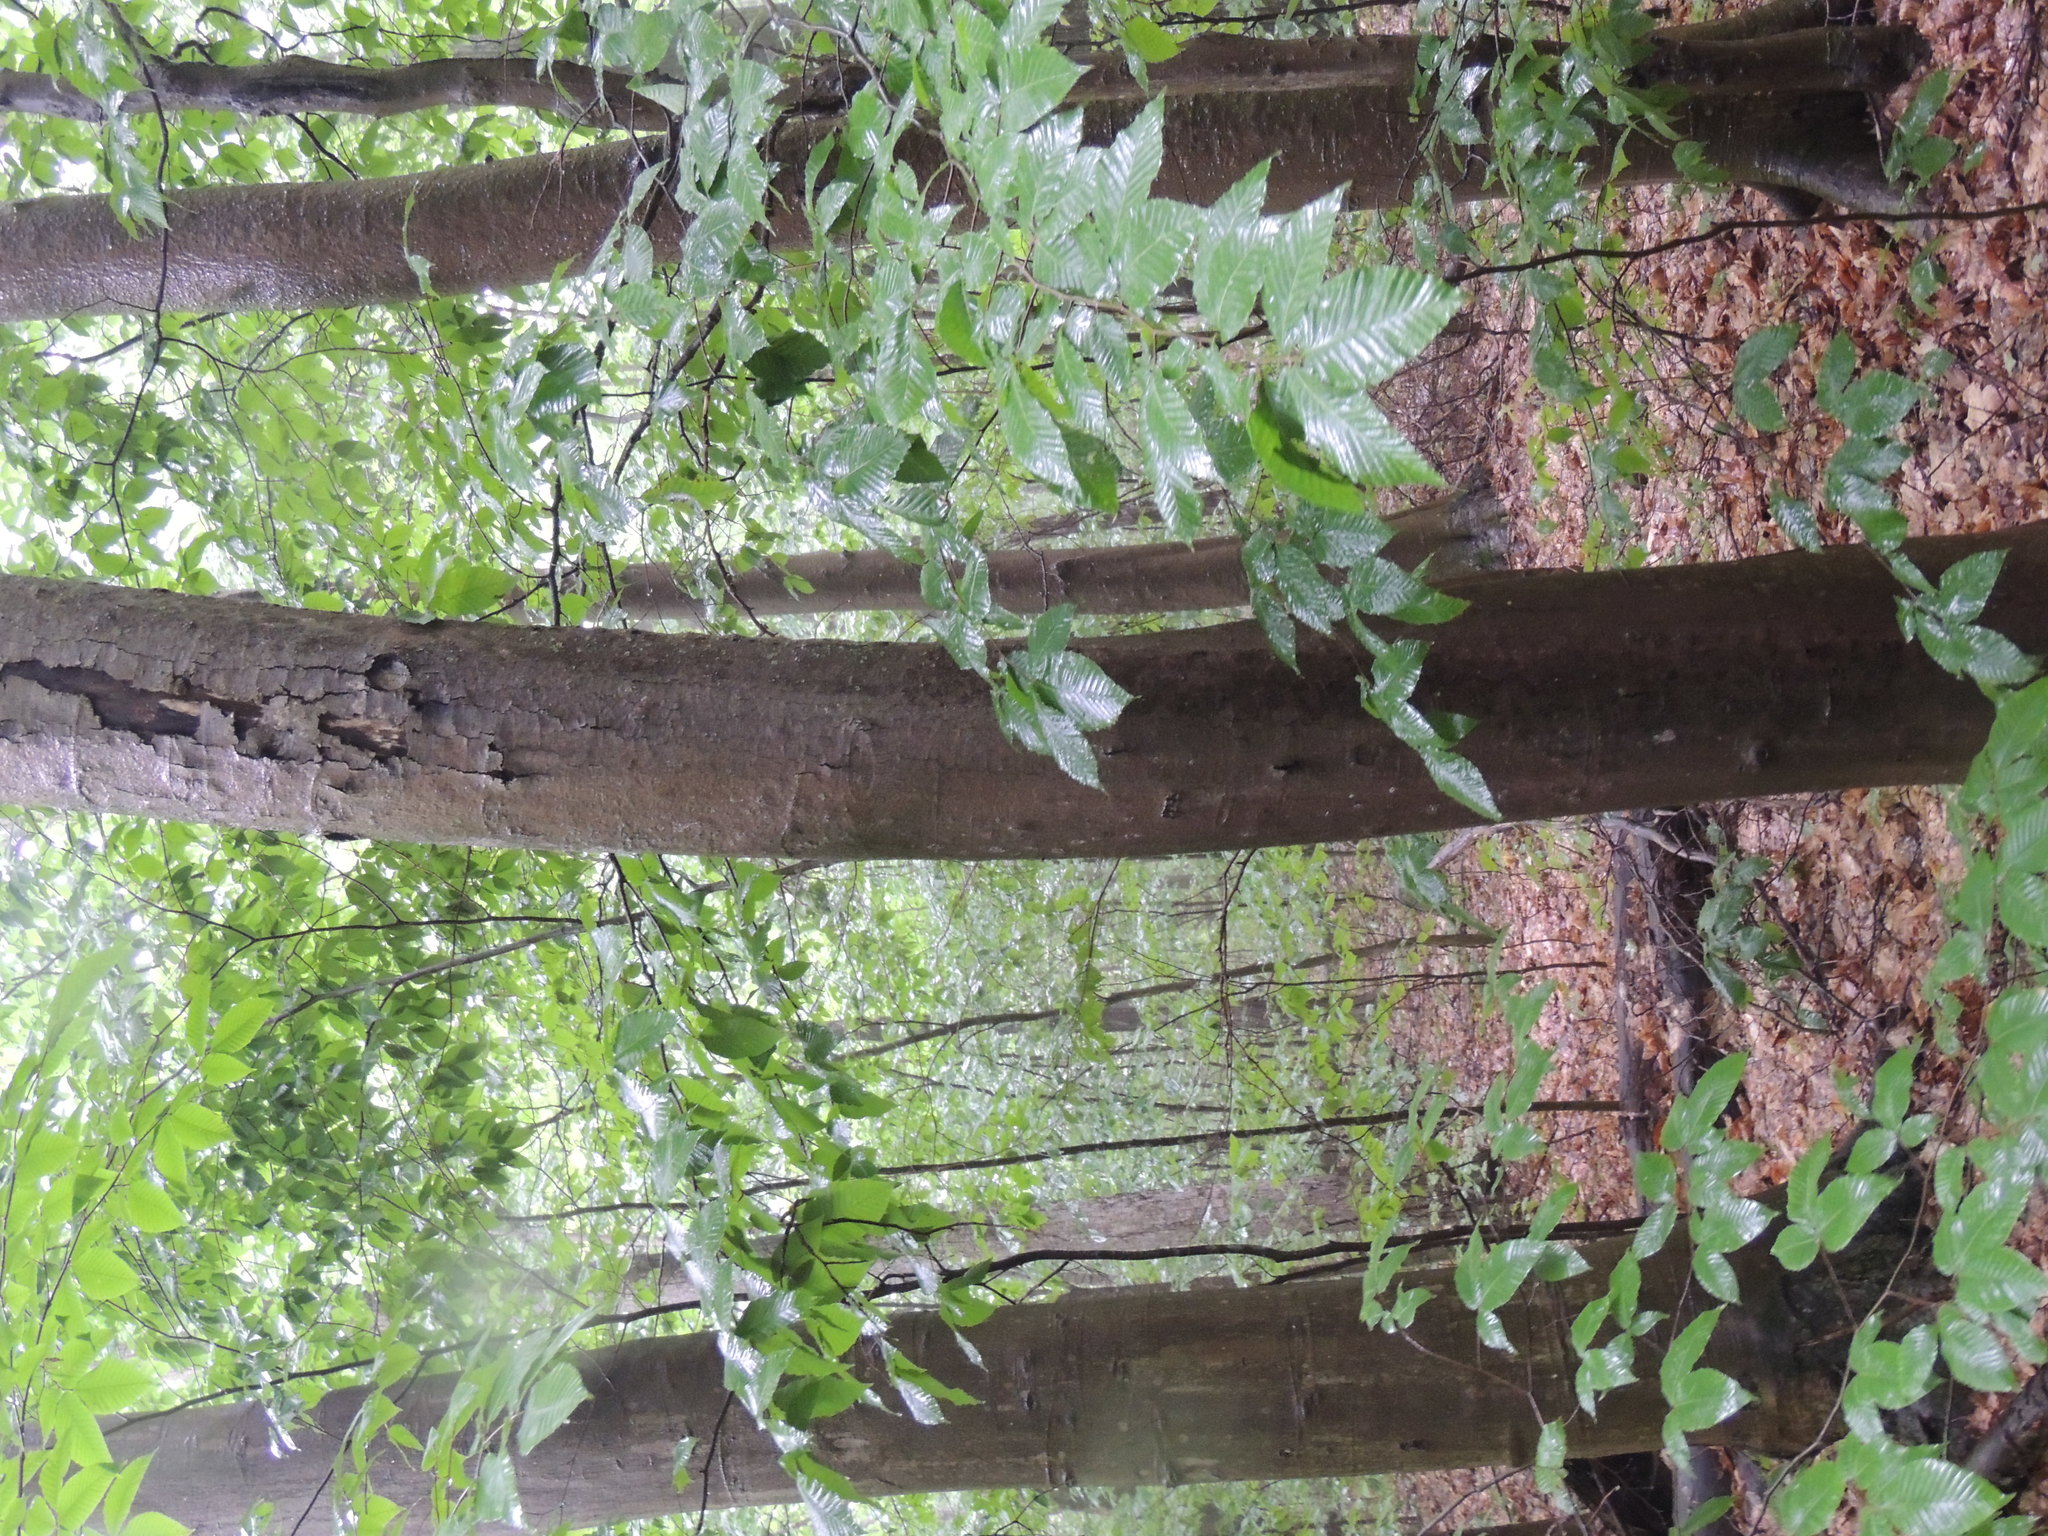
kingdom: Plantae
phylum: Tracheophyta
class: Magnoliopsida
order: Fagales
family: Fagaceae
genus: Fagus
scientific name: Fagus grandifolia
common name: American beech
